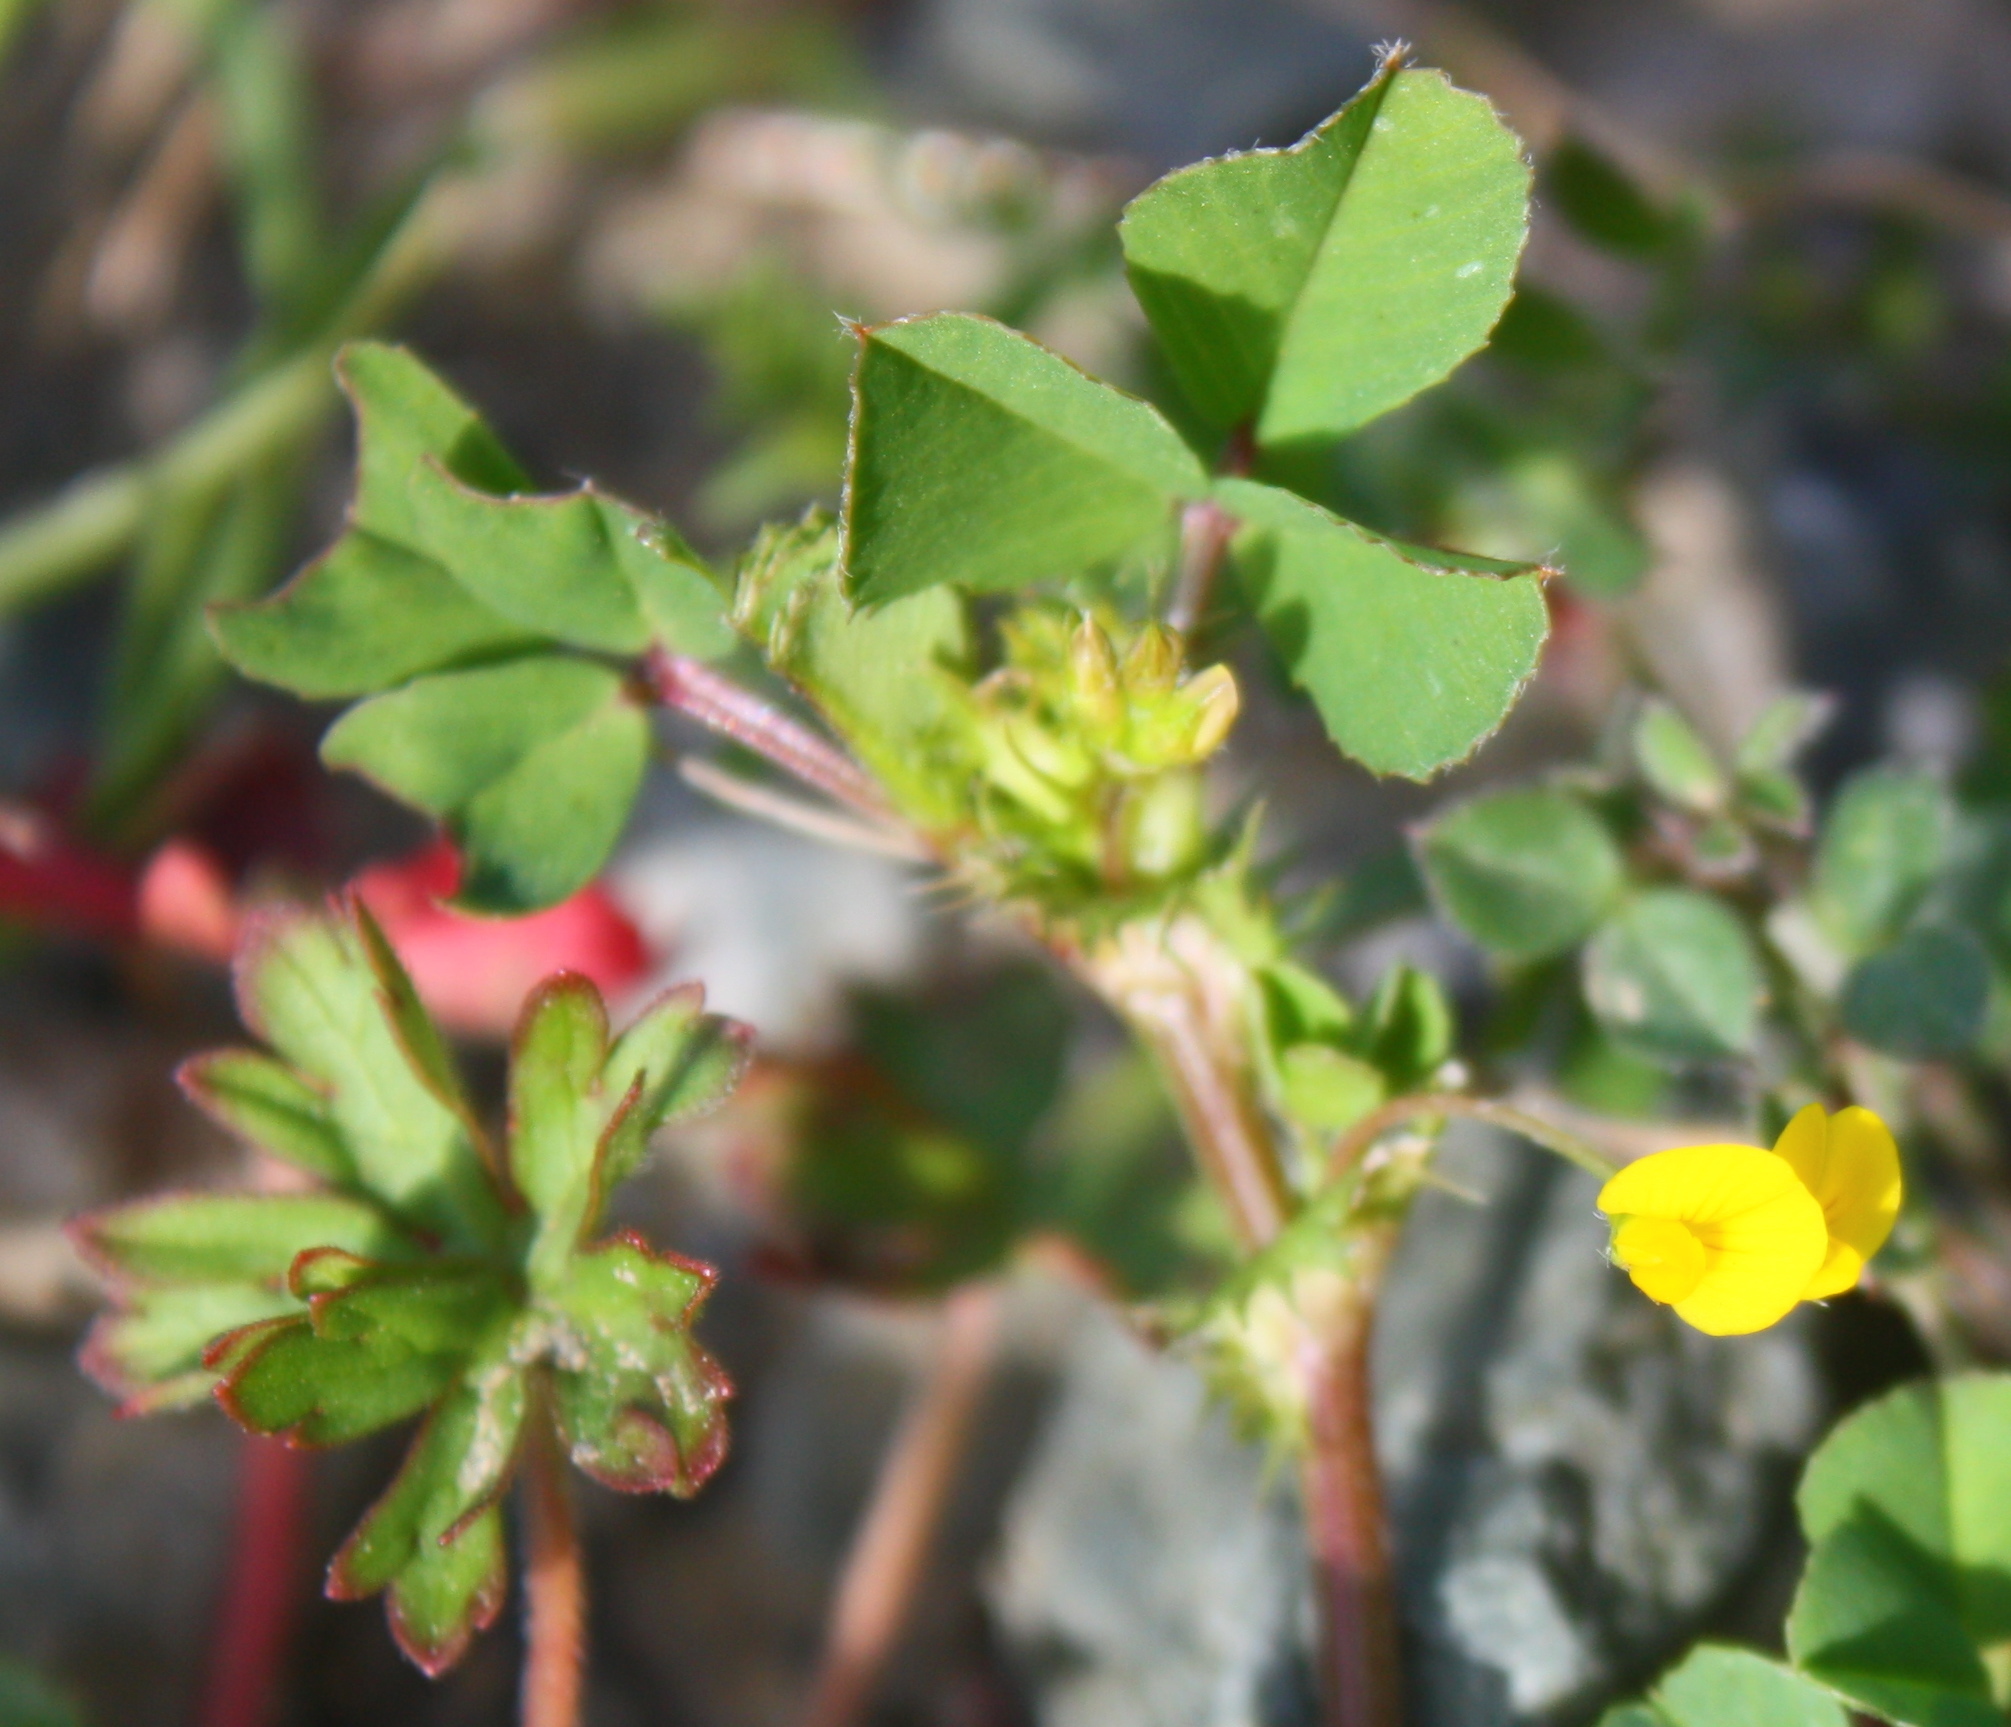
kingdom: Plantae
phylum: Tracheophyta
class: Magnoliopsida
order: Fabales
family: Fabaceae
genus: Medicago
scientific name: Medicago polymorpha
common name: Burclover
